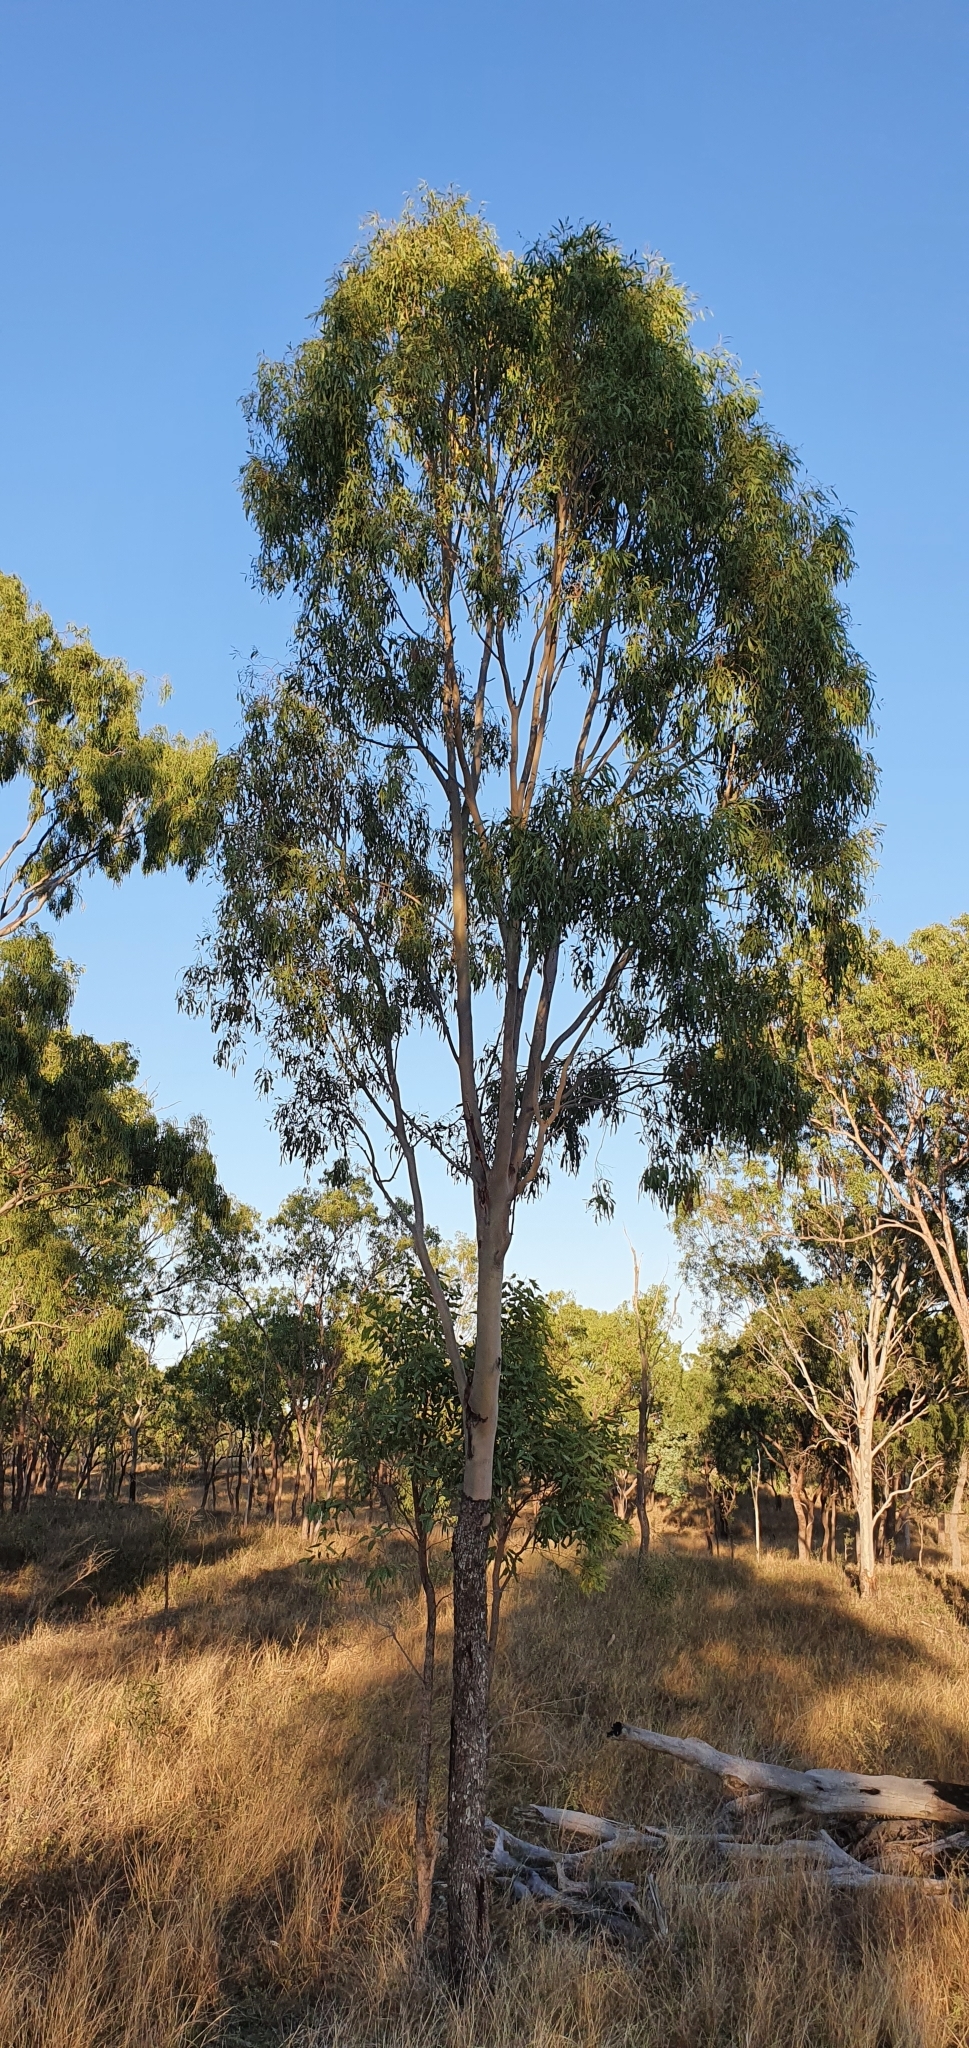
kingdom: Plantae
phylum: Tracheophyta
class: Magnoliopsida
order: Myrtales
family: Myrtaceae
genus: Corymbia
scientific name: Corymbia tessellaris
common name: Carbeen
